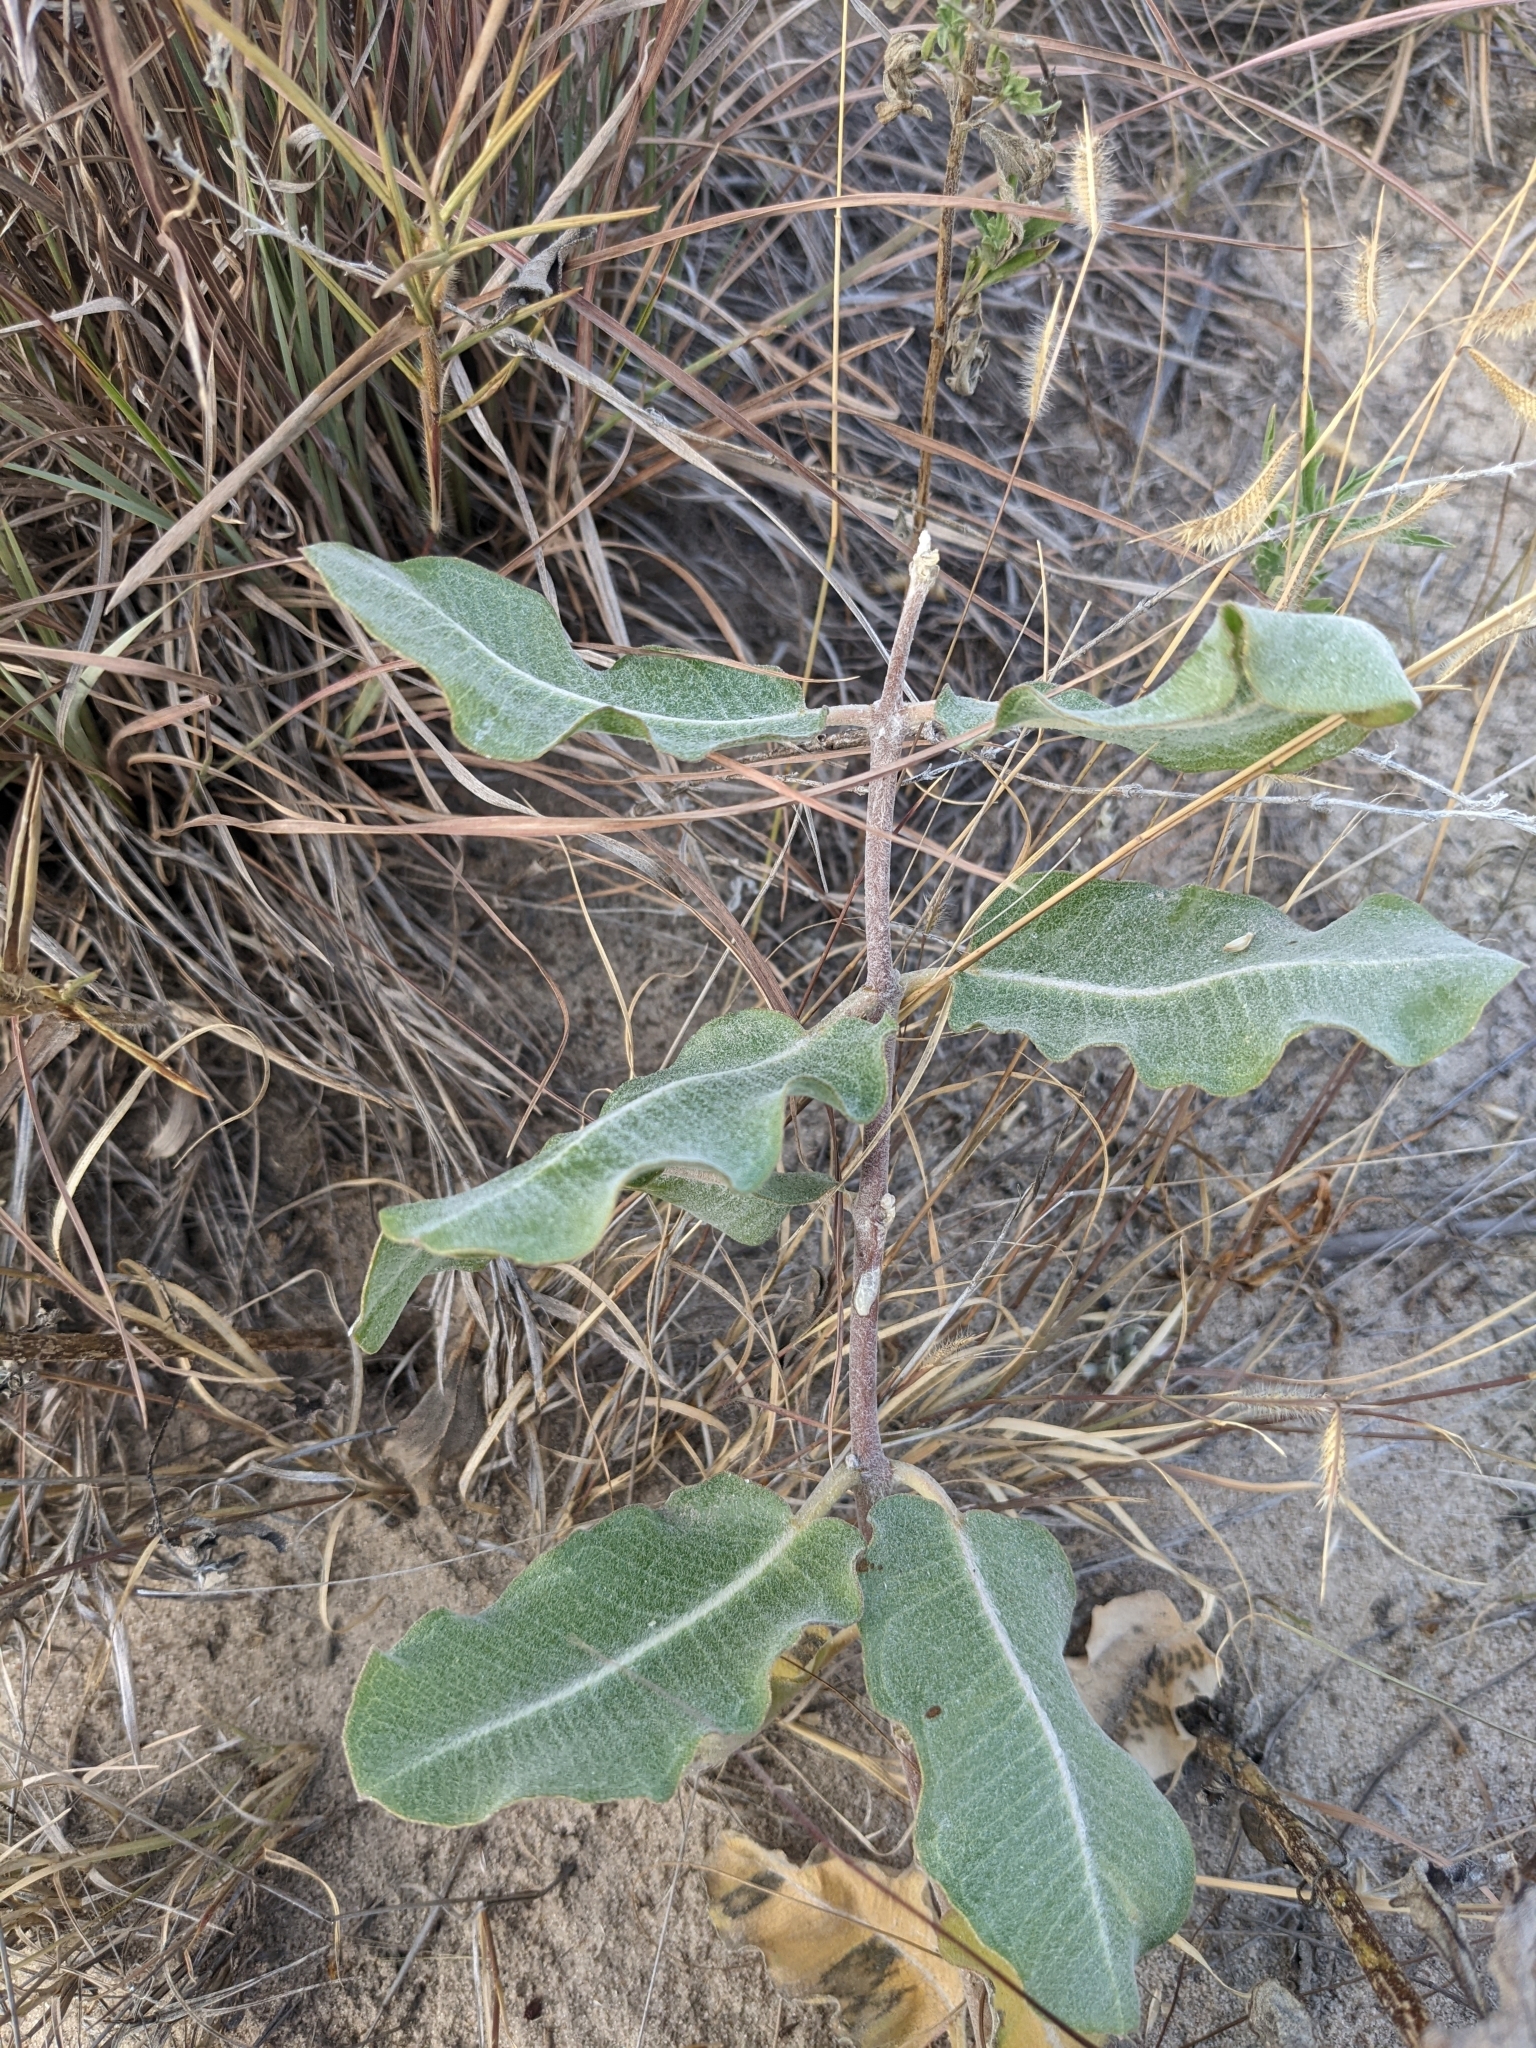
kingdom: Plantae
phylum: Tracheophyta
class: Magnoliopsida
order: Gentianales
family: Apocynaceae
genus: Asclepias
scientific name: Asclepias arenaria
